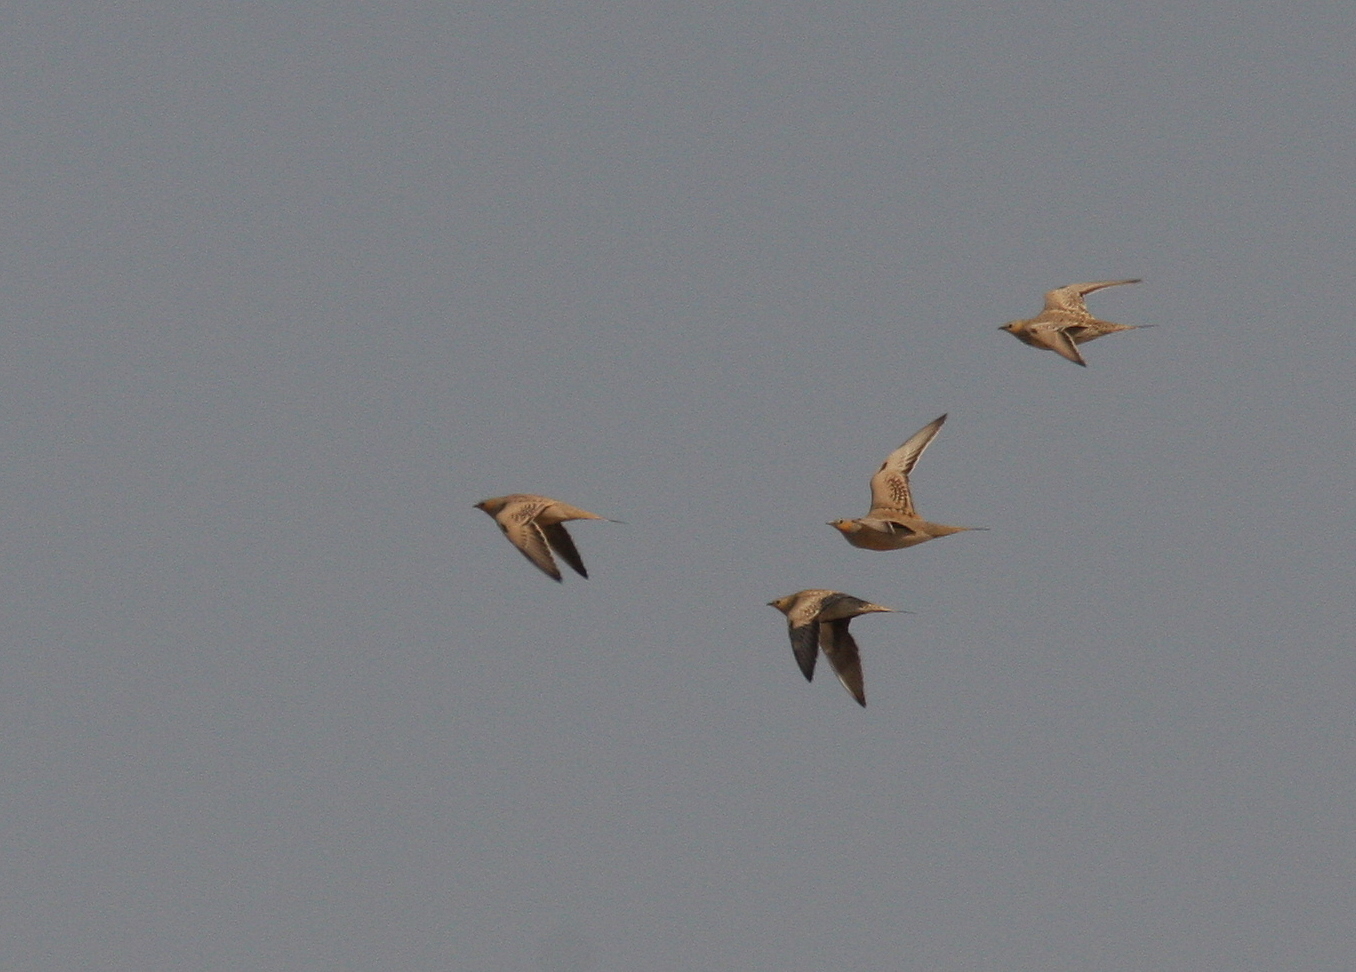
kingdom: Animalia
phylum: Chordata
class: Aves
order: Pteroclidiformes
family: Pteroclididae
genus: Pterocles
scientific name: Pterocles senegallus
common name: Spotted sandgrouse
